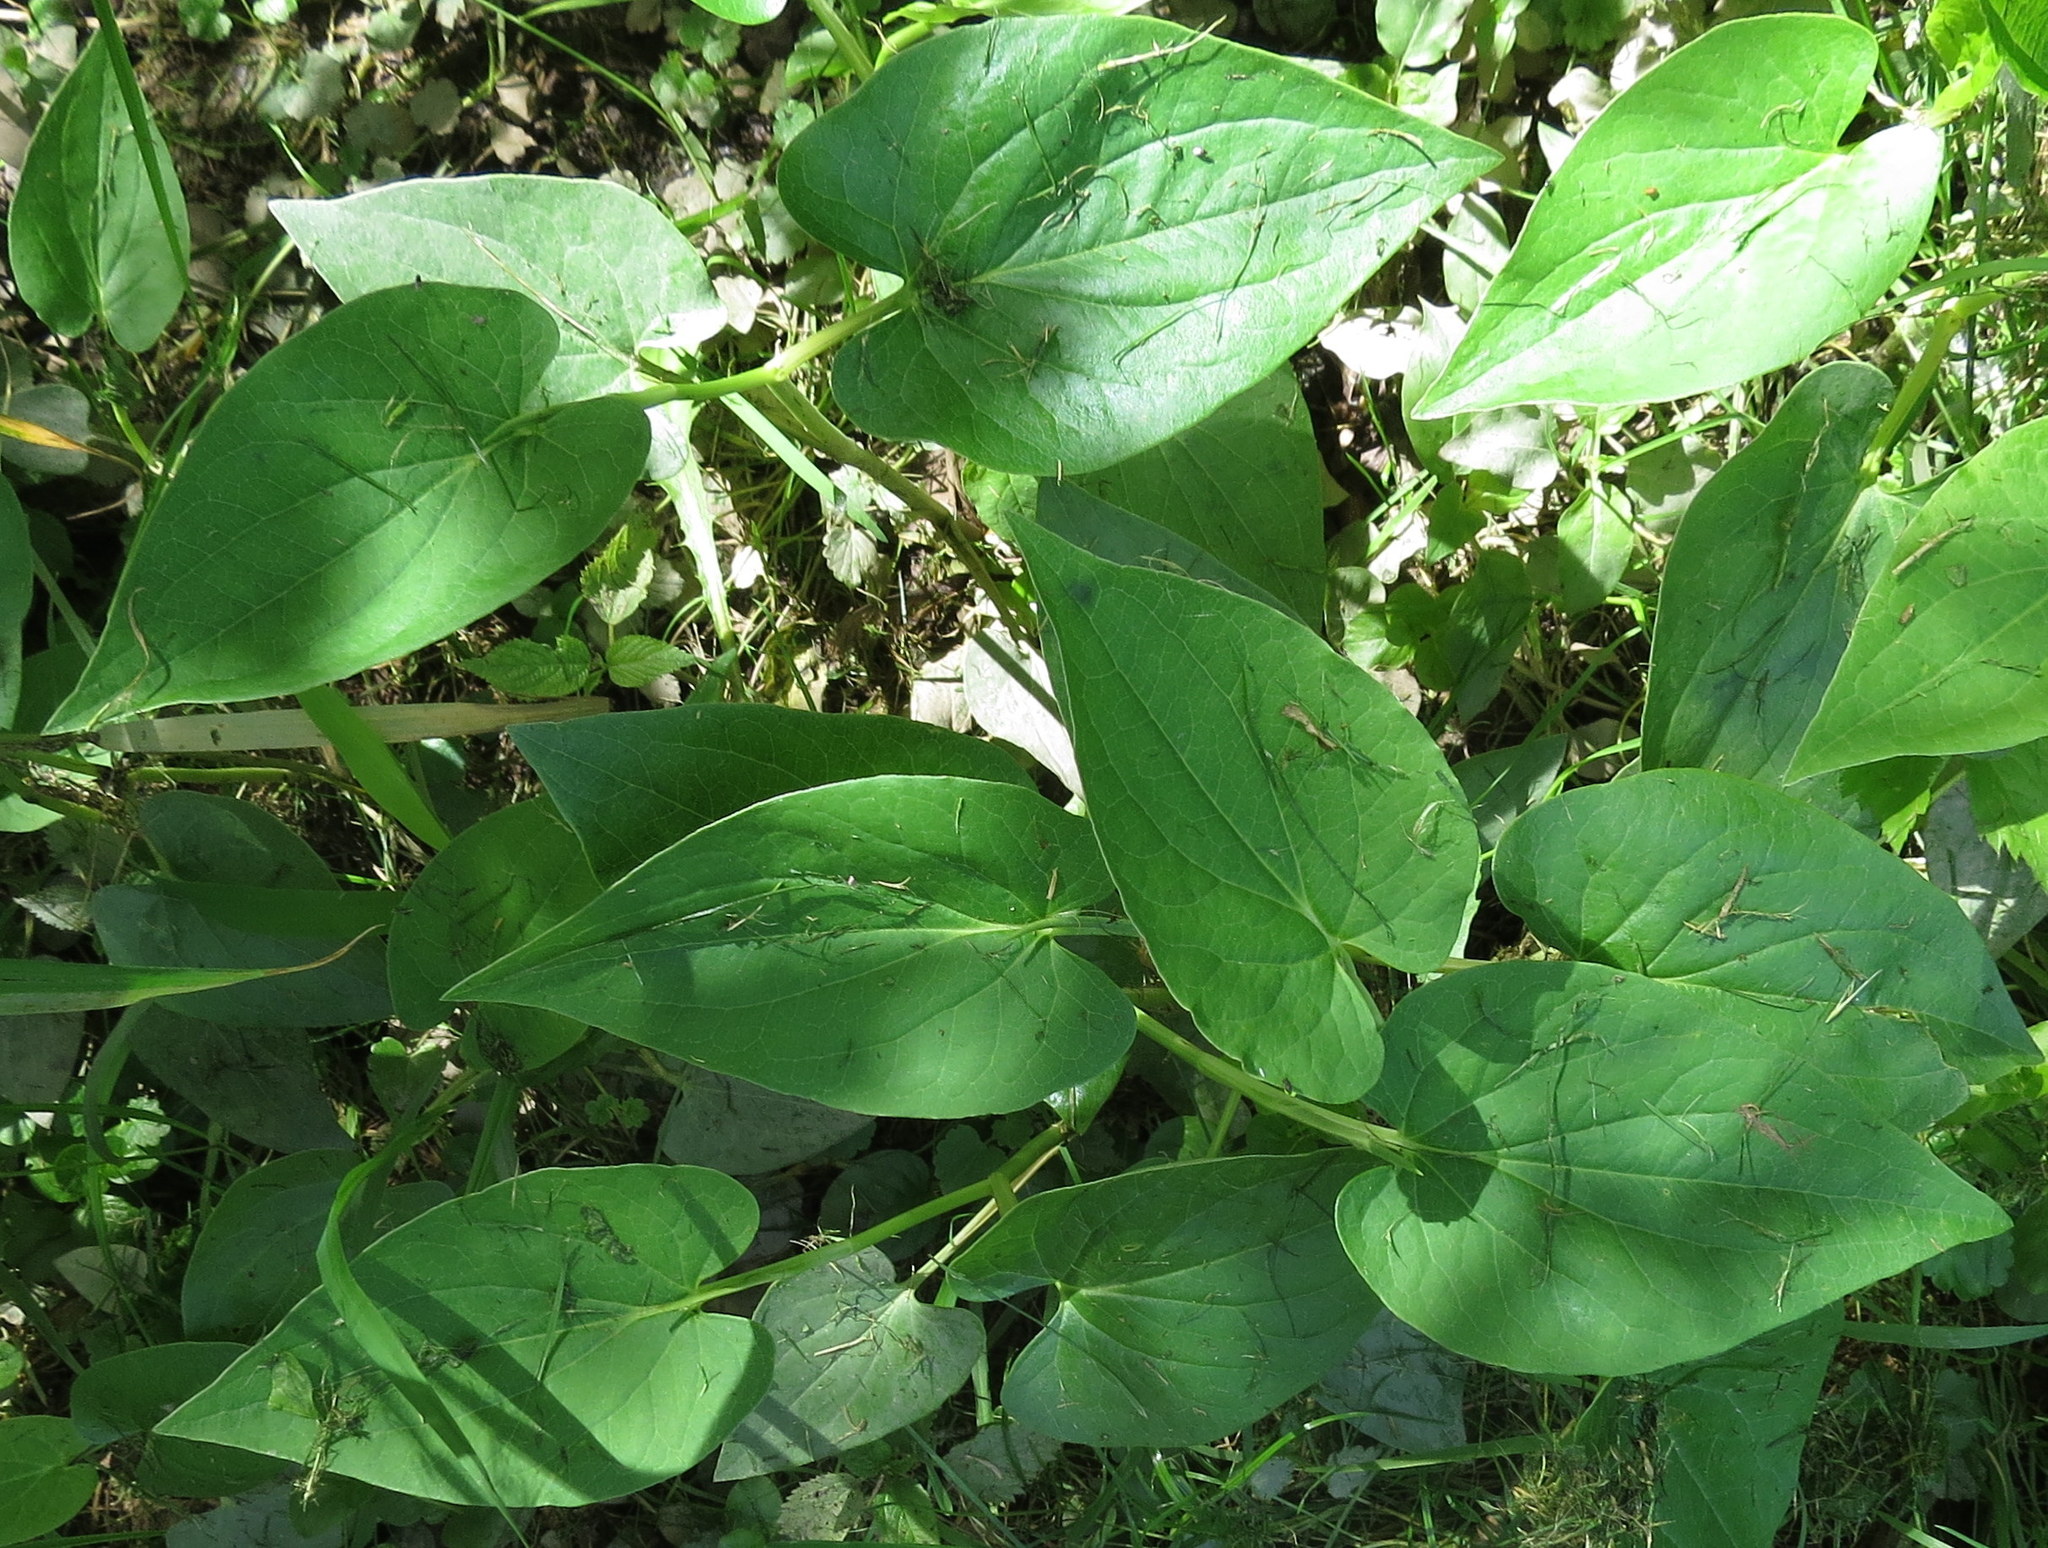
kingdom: Plantae
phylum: Tracheophyta
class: Magnoliopsida
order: Piperales
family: Saururaceae
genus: Saururus
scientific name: Saururus cernuus
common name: Lizard's-tail
